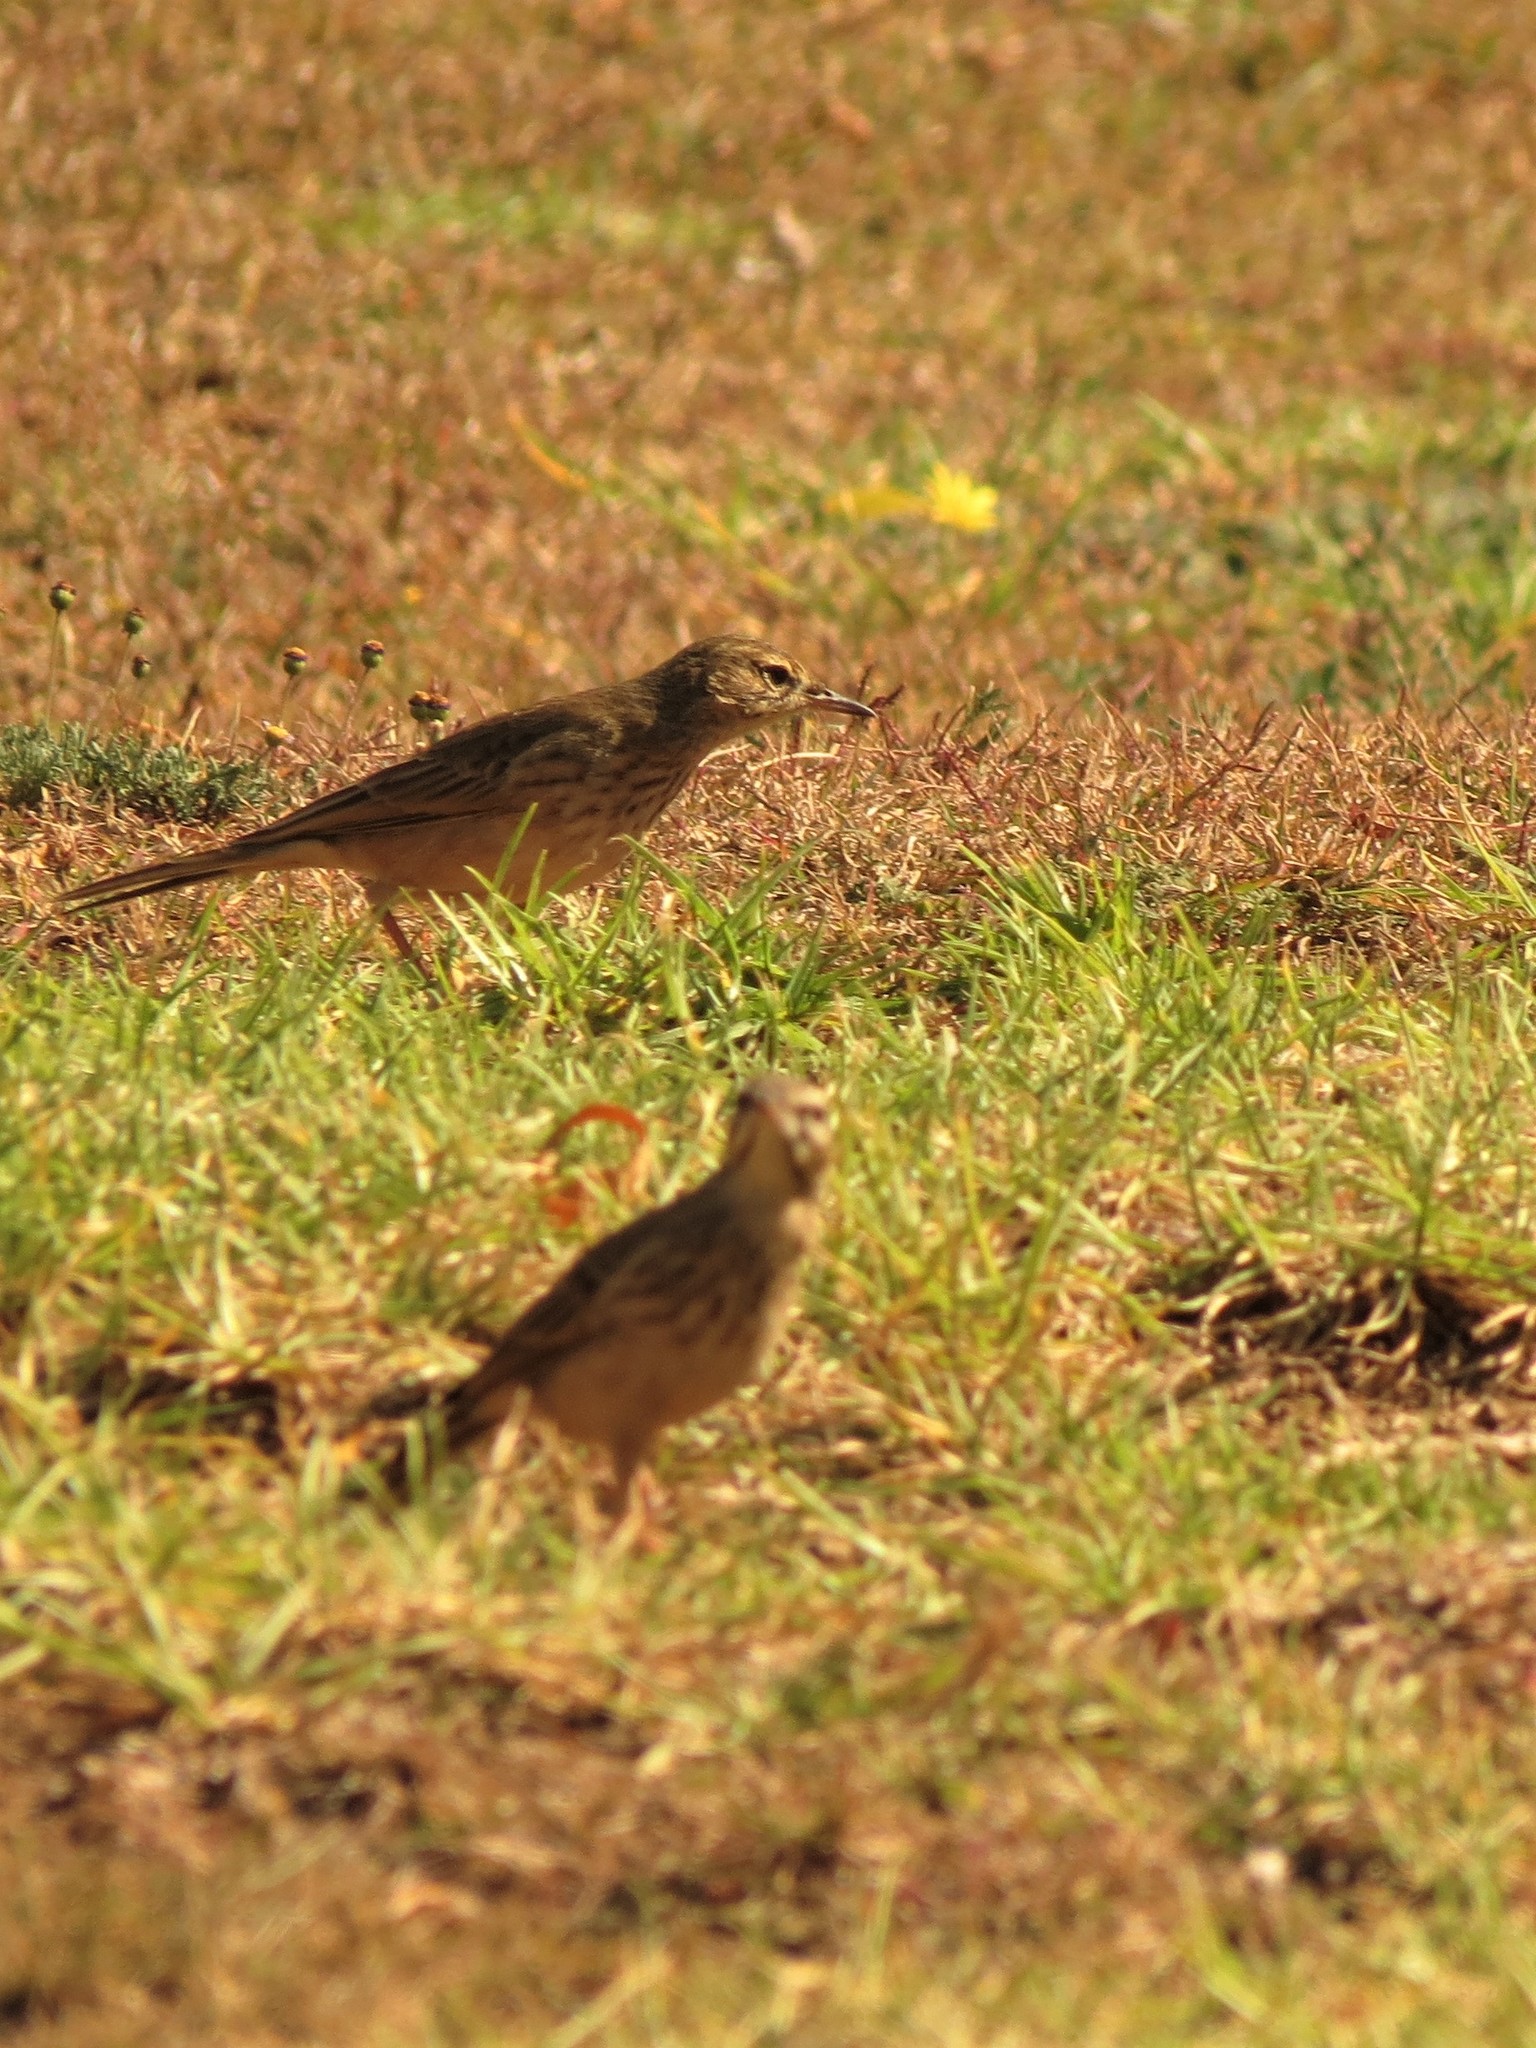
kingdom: Animalia
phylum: Chordata
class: Aves
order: Passeriformes
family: Motacillidae
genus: Anthus
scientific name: Anthus cinnamomeus
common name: African pipit
